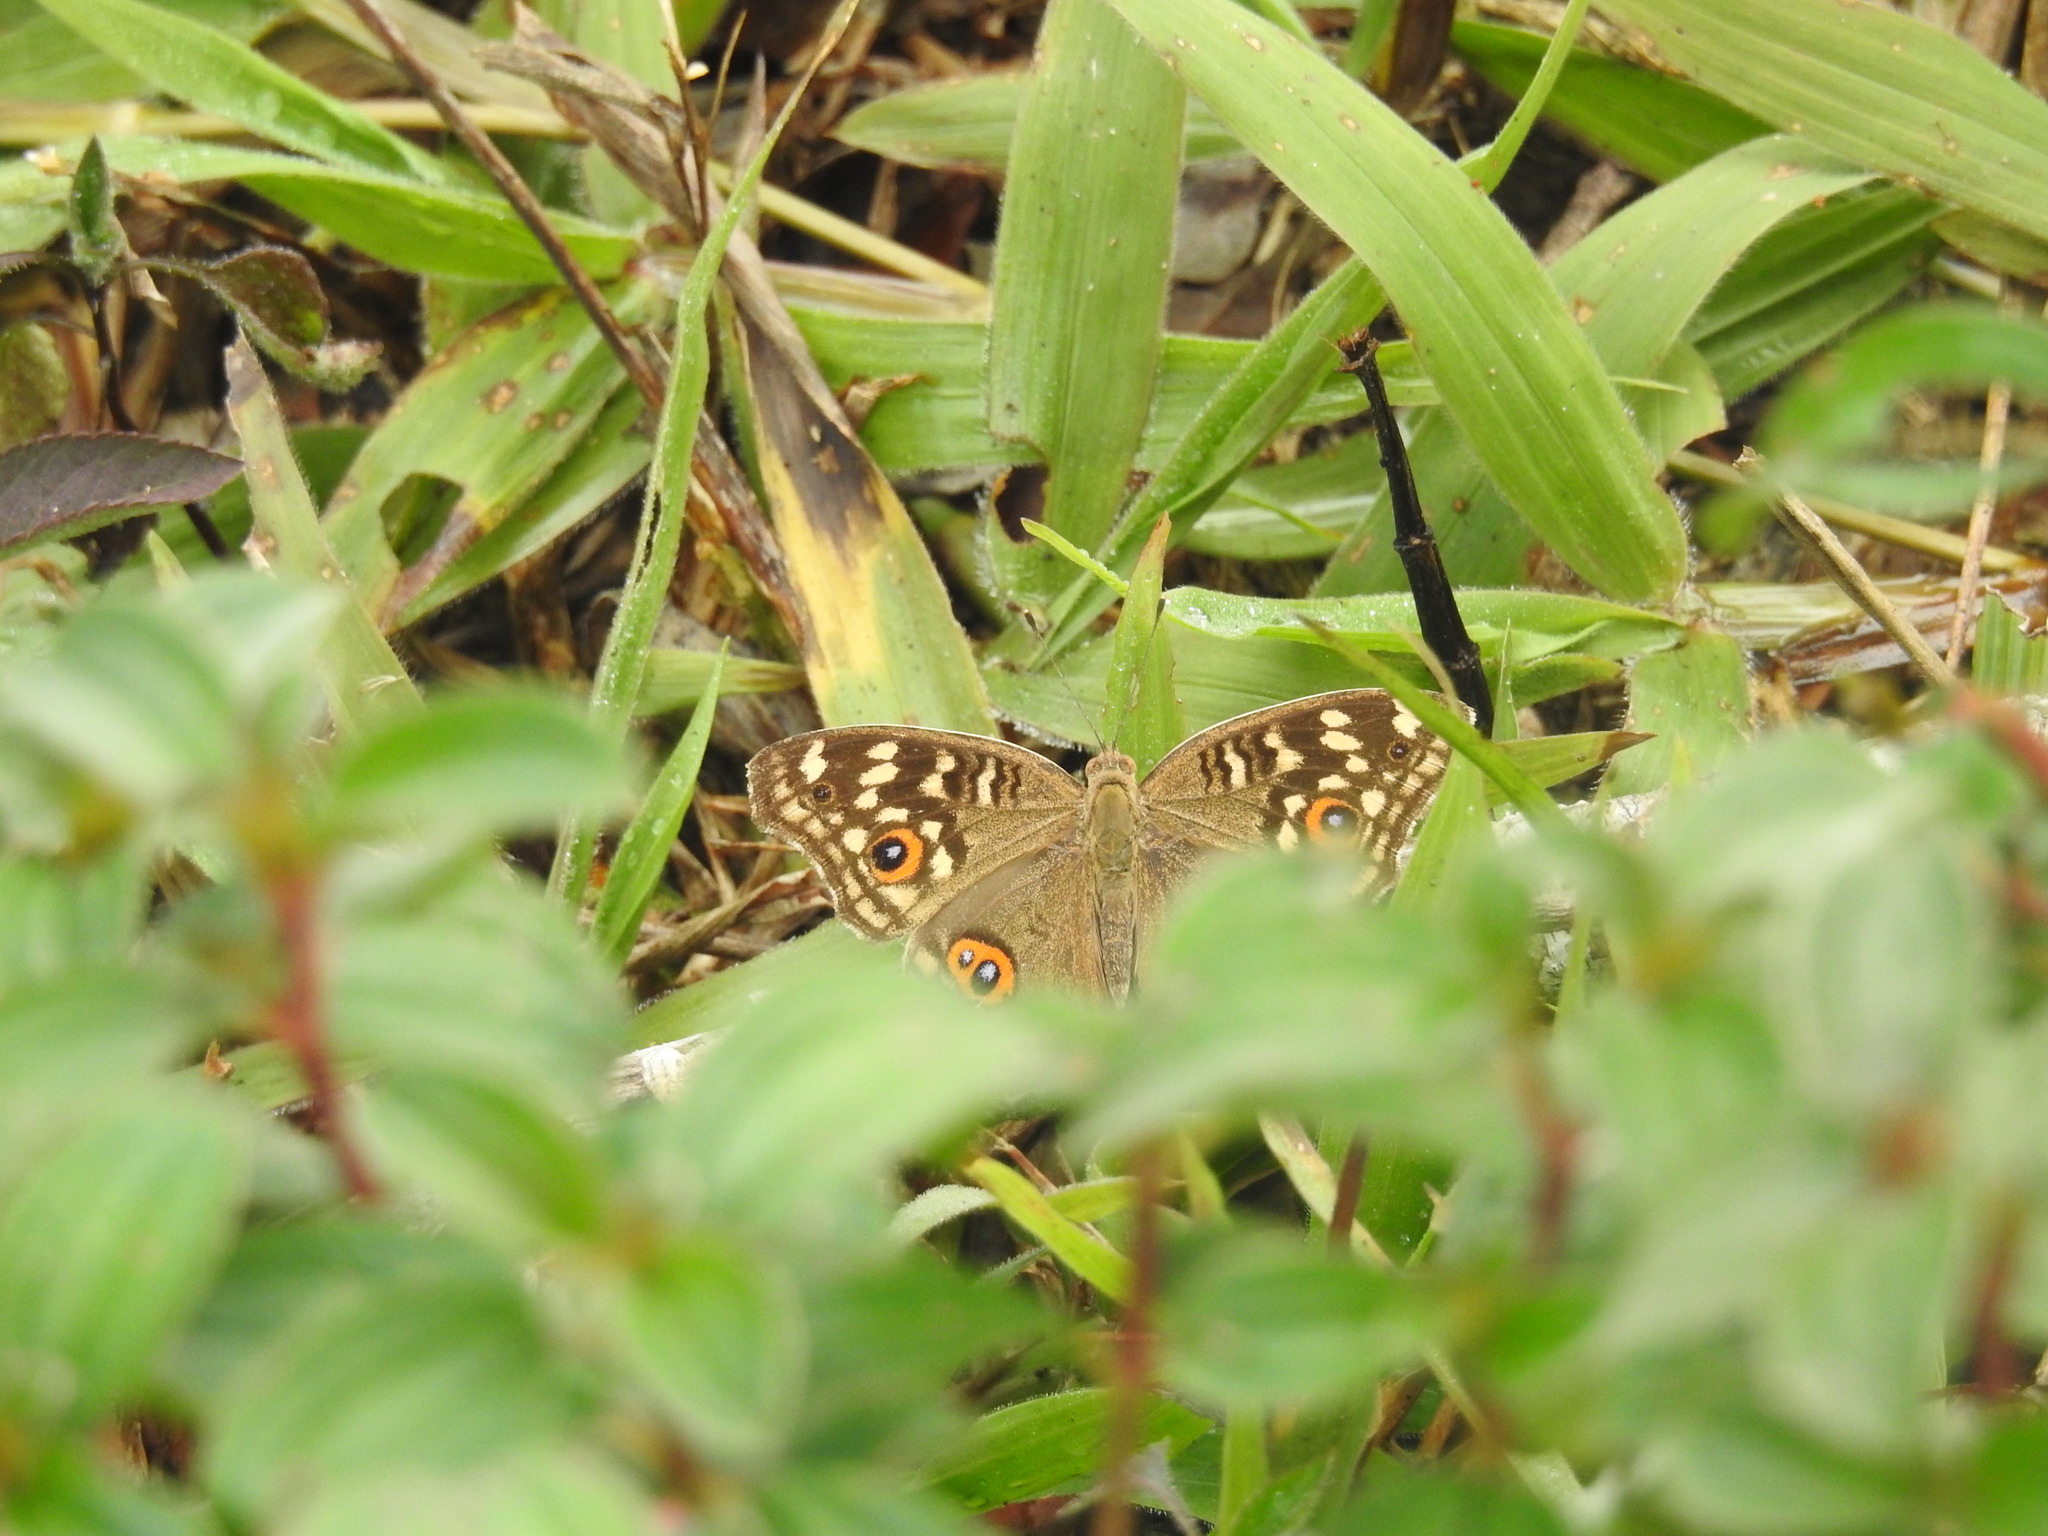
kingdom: Animalia
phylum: Arthropoda
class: Insecta
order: Lepidoptera
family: Nymphalidae
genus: Junonia
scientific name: Junonia lemonias
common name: Lemon pansy
